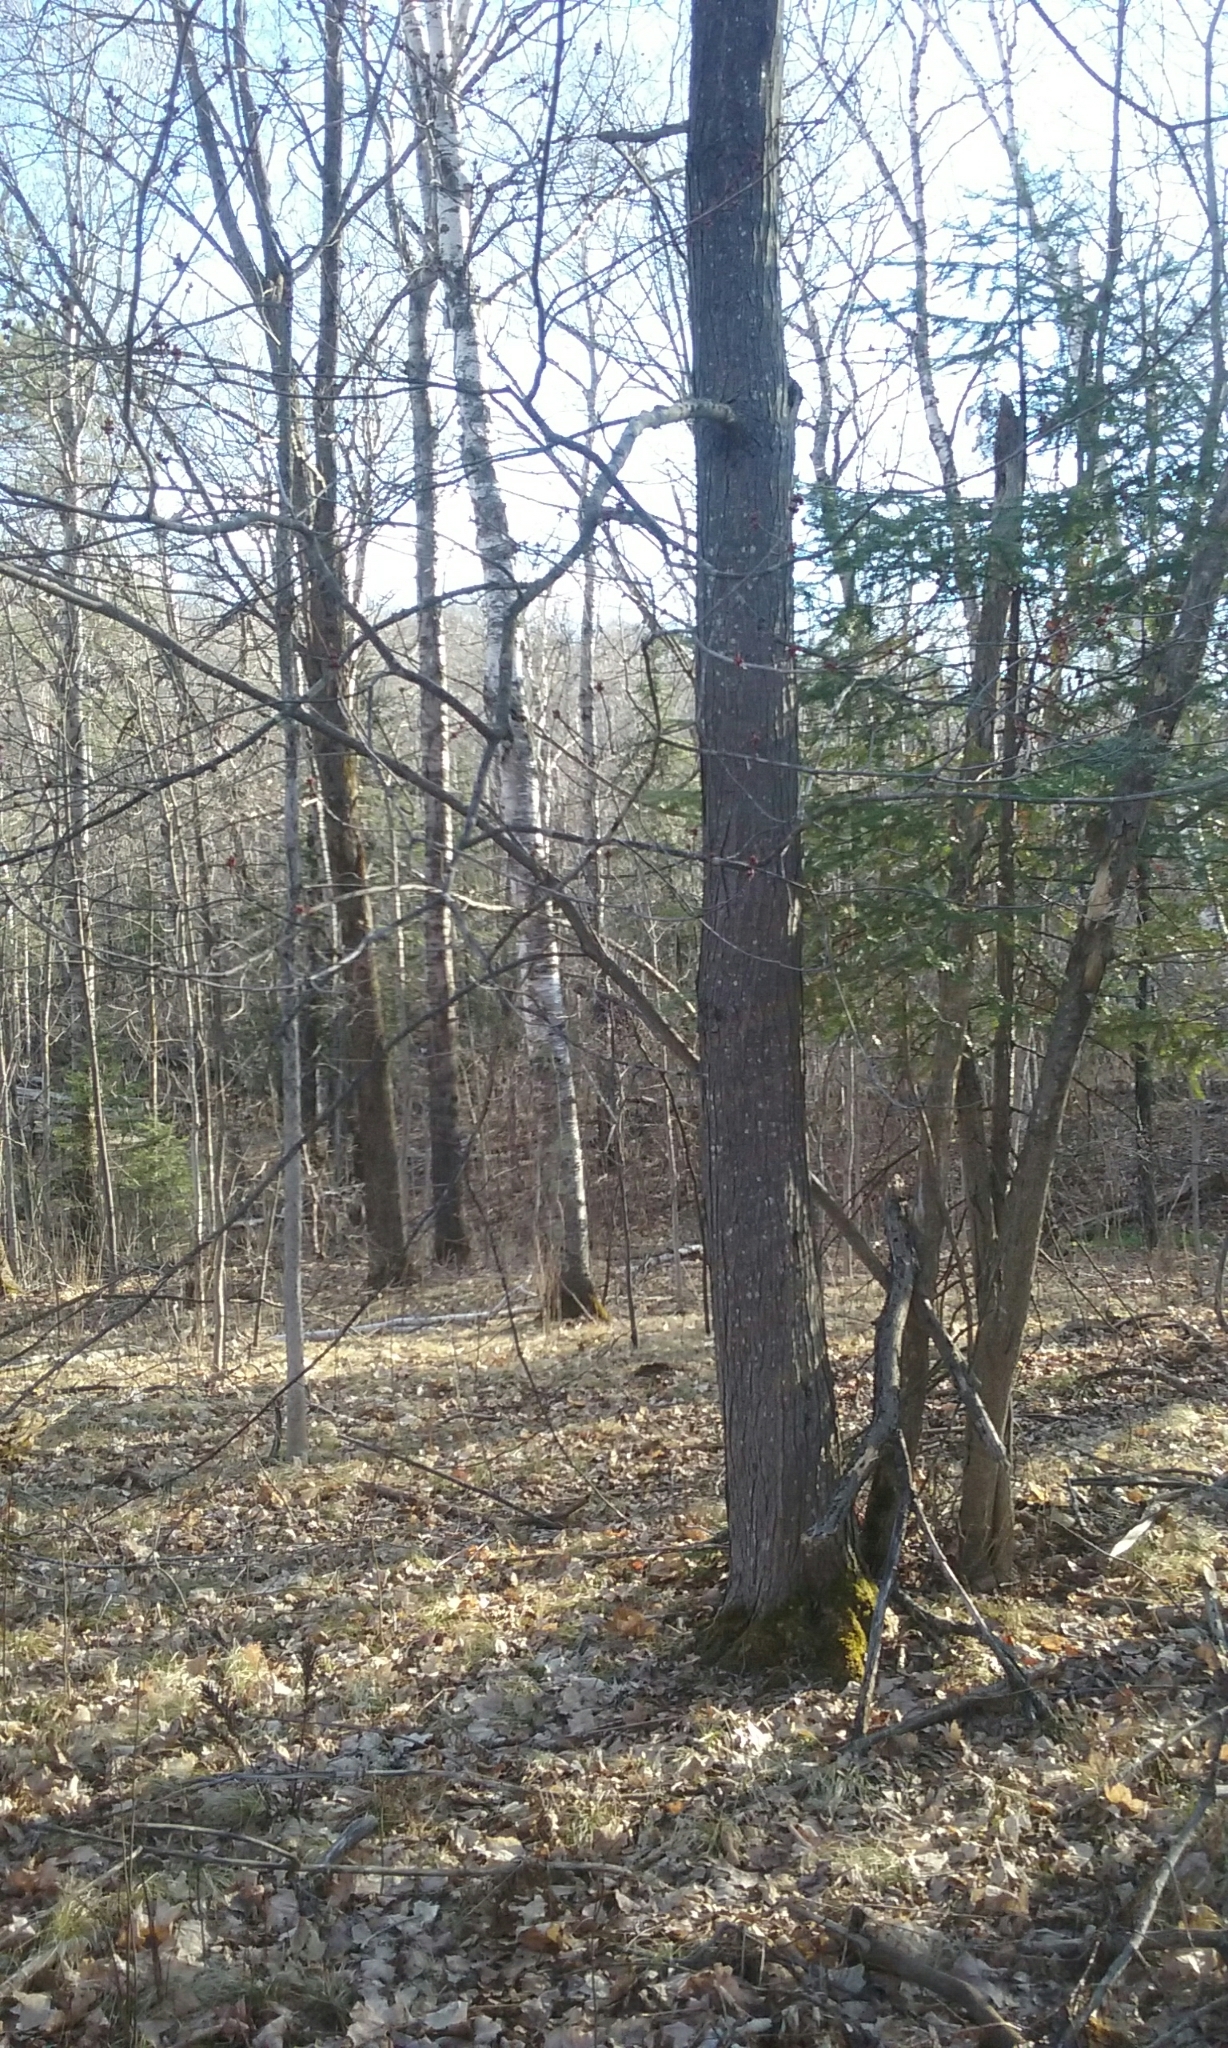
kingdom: Plantae
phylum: Tracheophyta
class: Magnoliopsida
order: Sapindales
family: Sapindaceae
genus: Acer
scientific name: Acer rubrum
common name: Red maple
